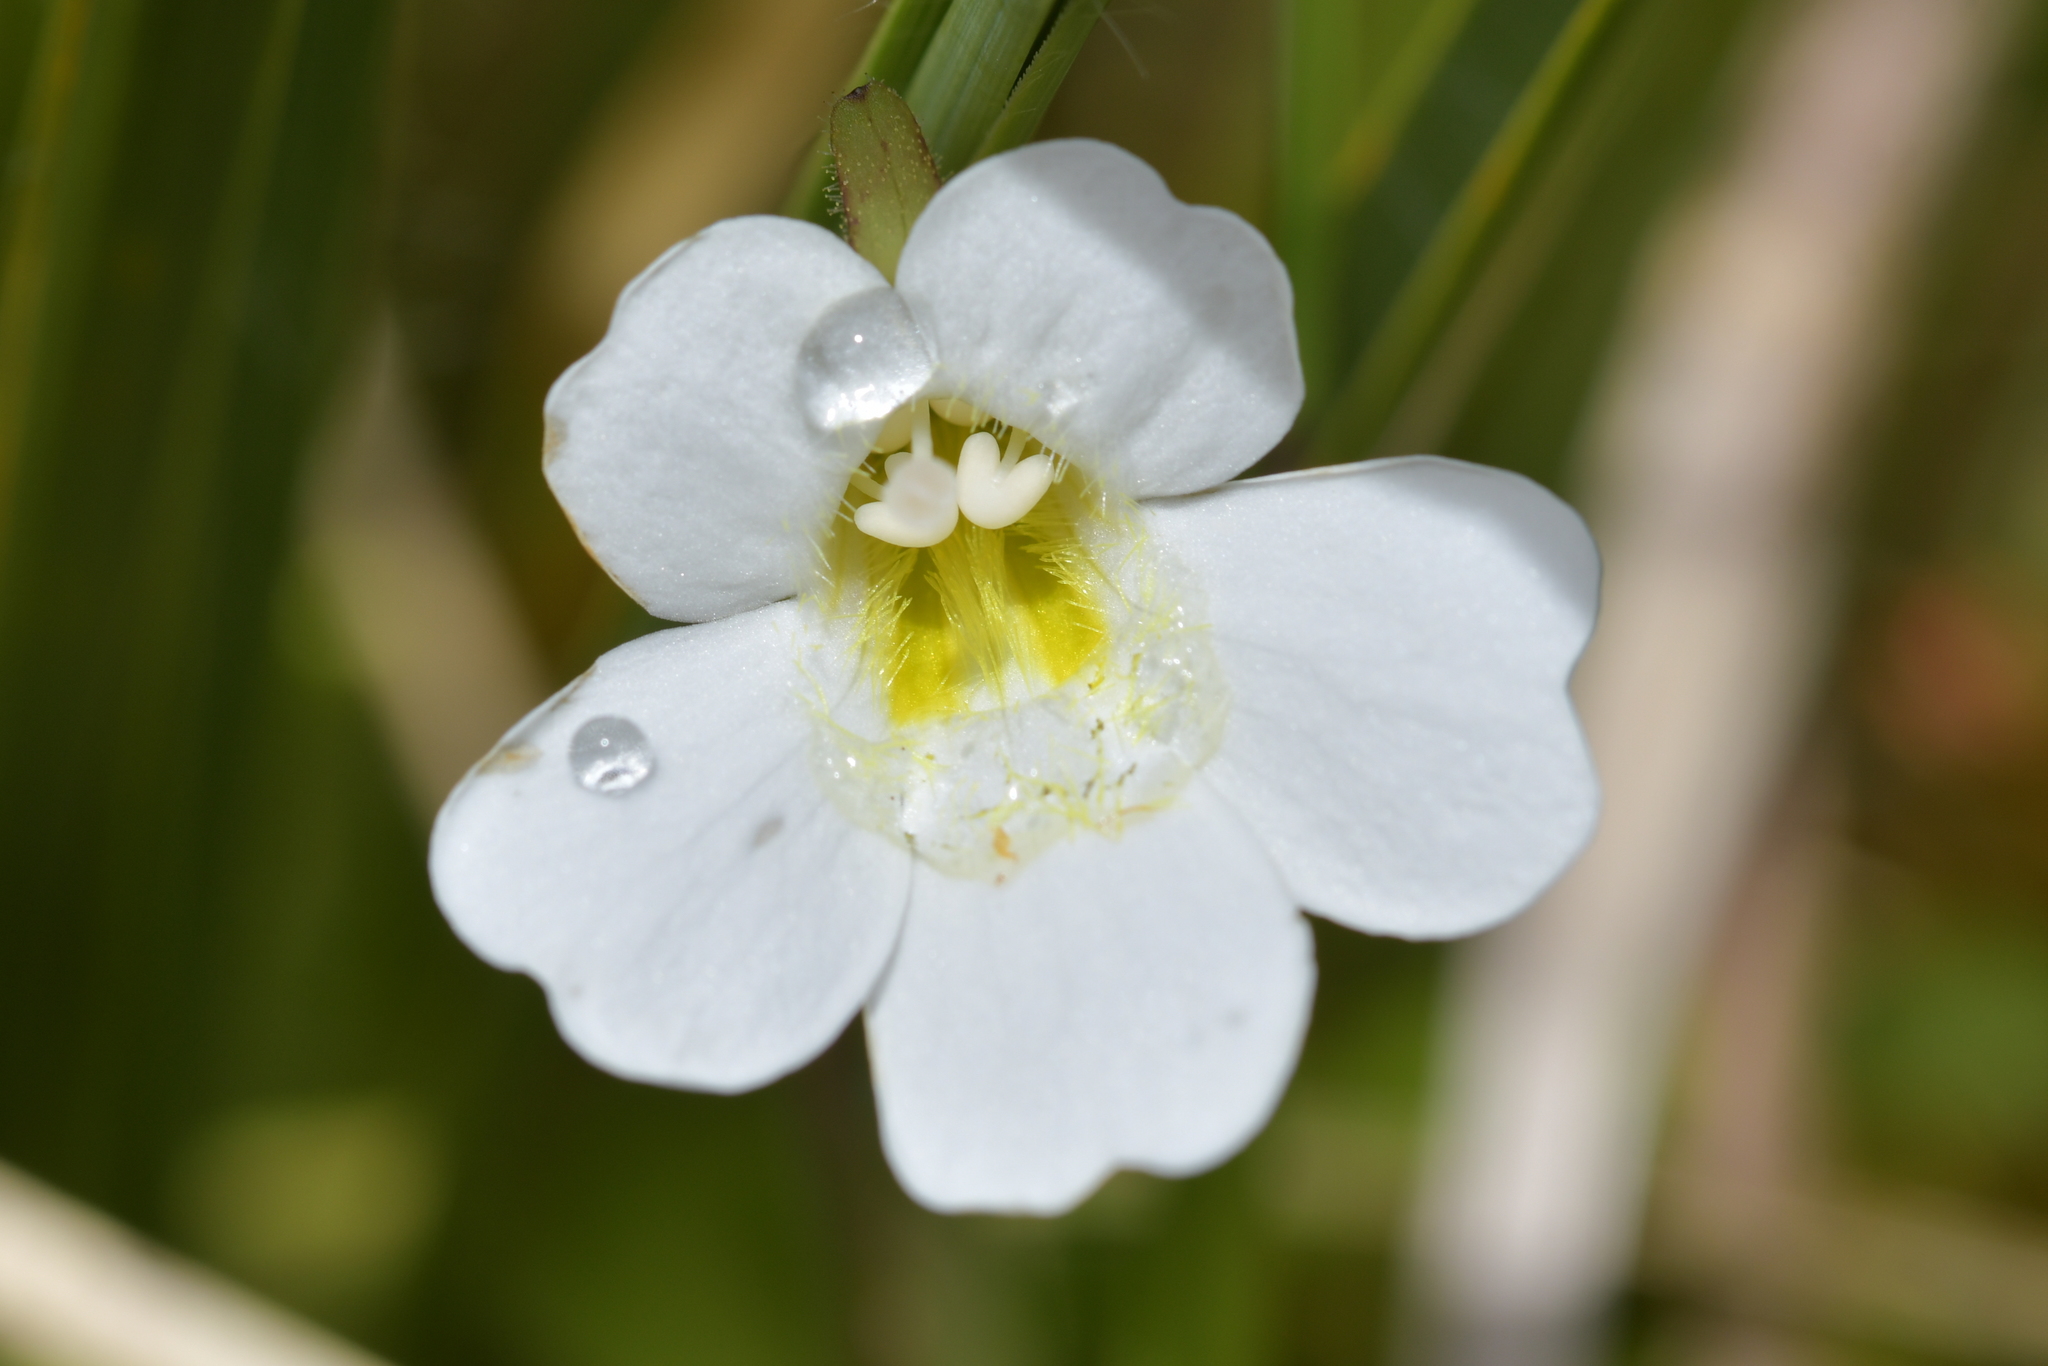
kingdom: Plantae
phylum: Tracheophyta
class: Magnoliopsida
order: Lamiales
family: Plantaginaceae
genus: Ourisia
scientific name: Ourisia macrophylla
